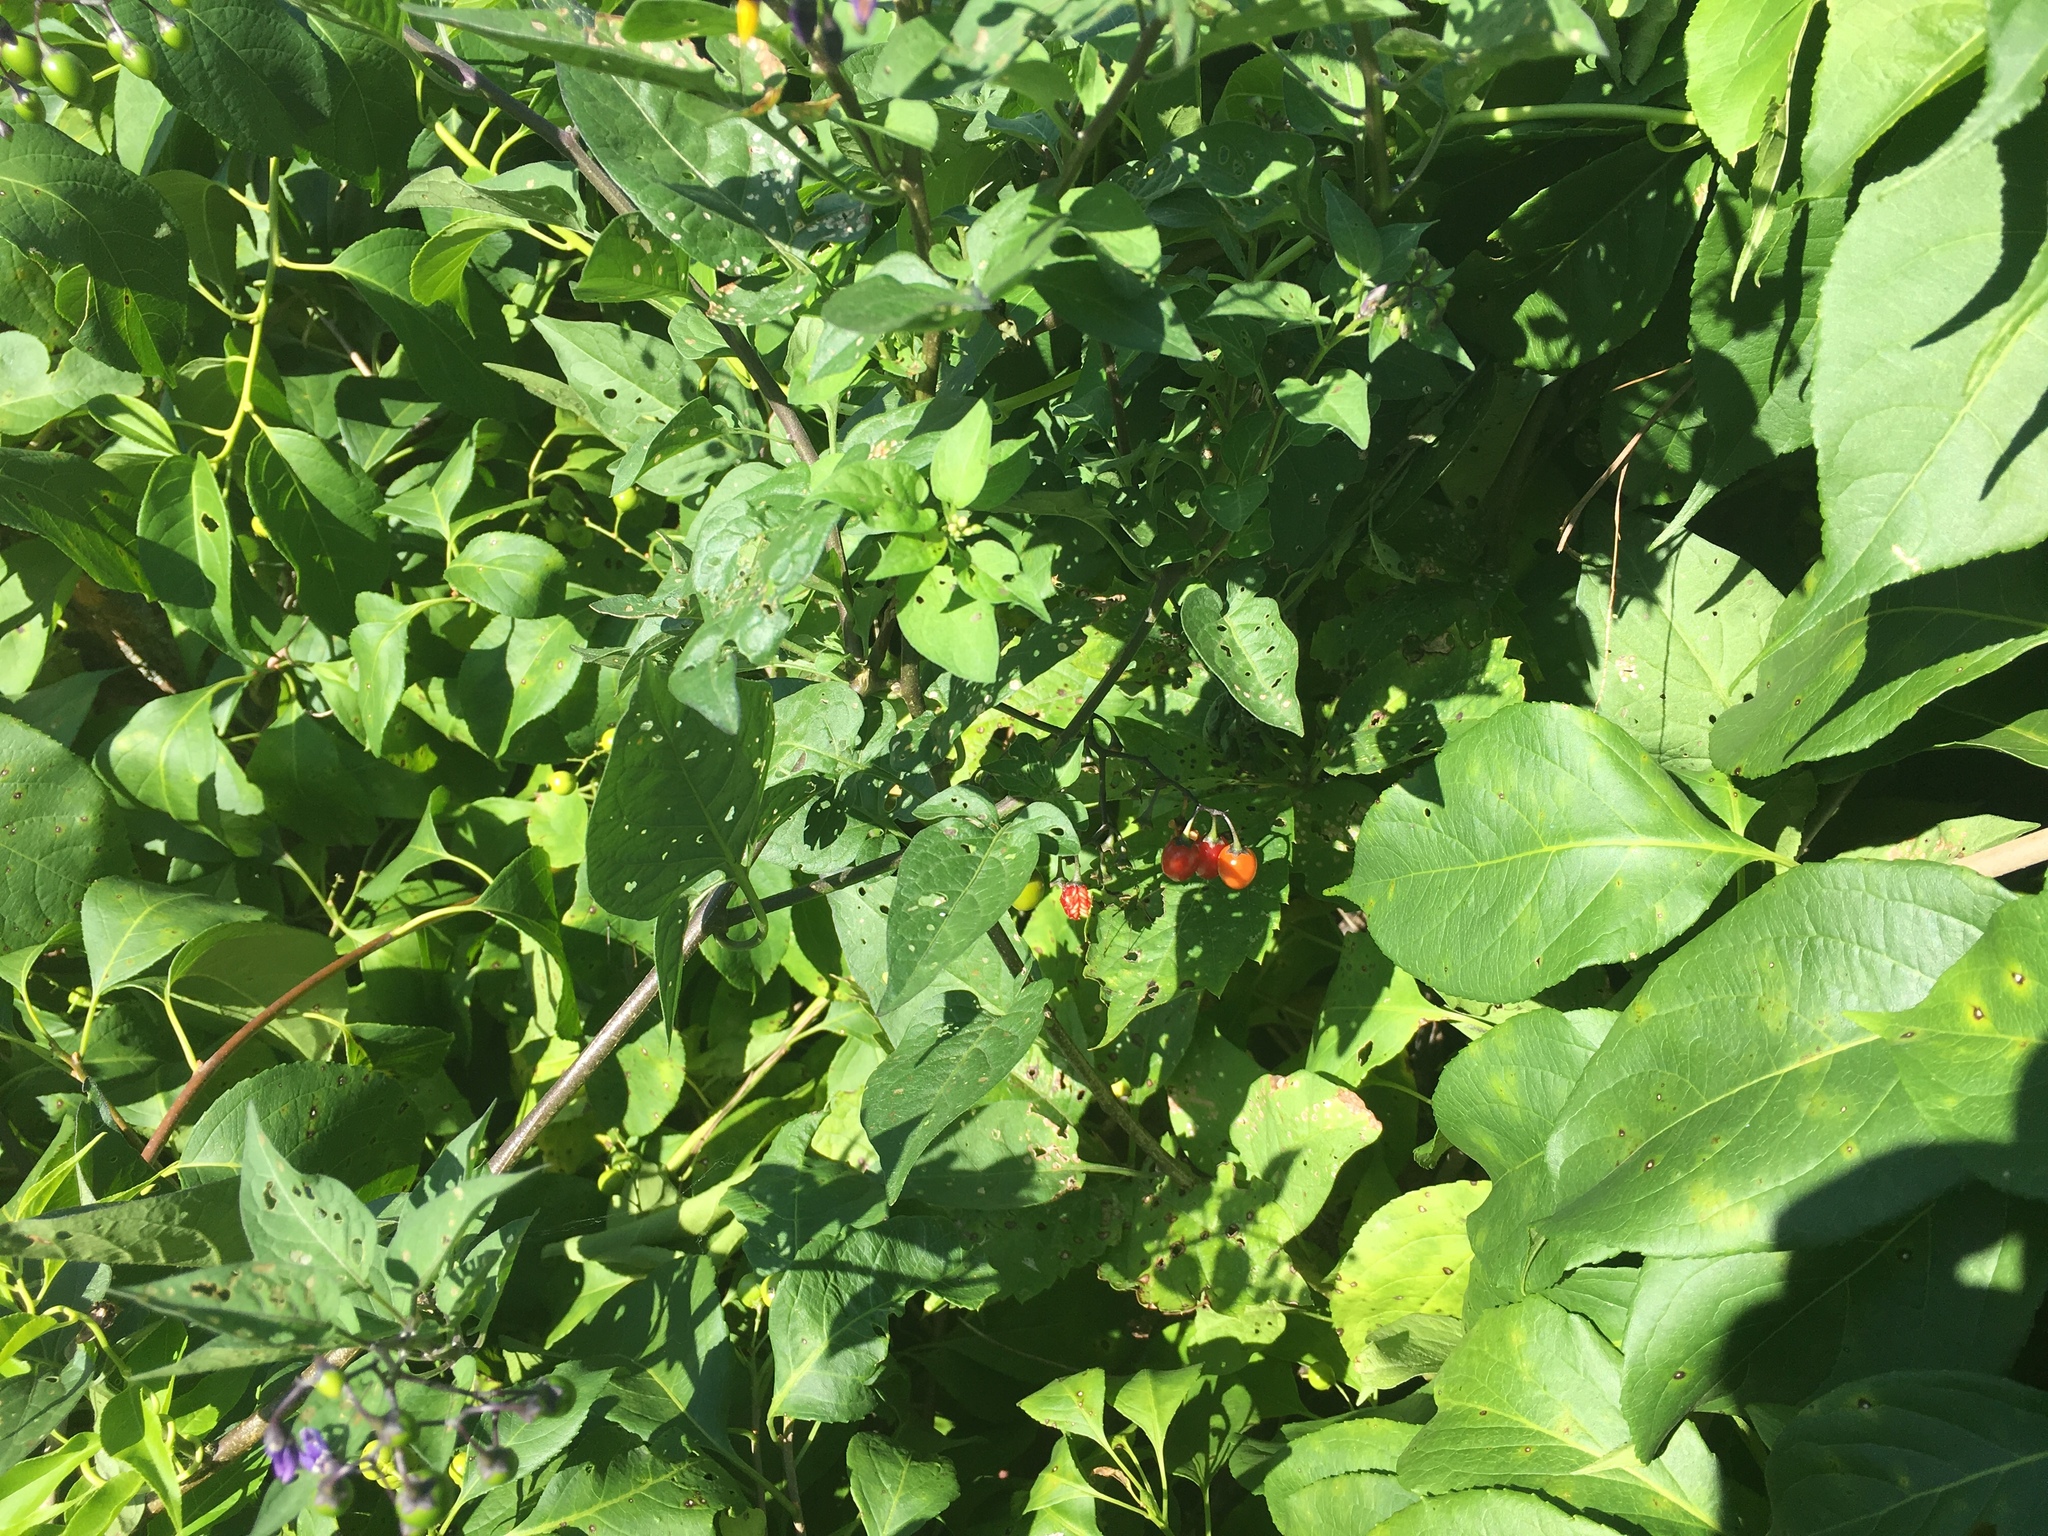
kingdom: Plantae
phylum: Tracheophyta
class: Magnoliopsida
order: Solanales
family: Solanaceae
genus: Solanum
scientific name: Solanum dulcamara
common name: Climbing nightshade
